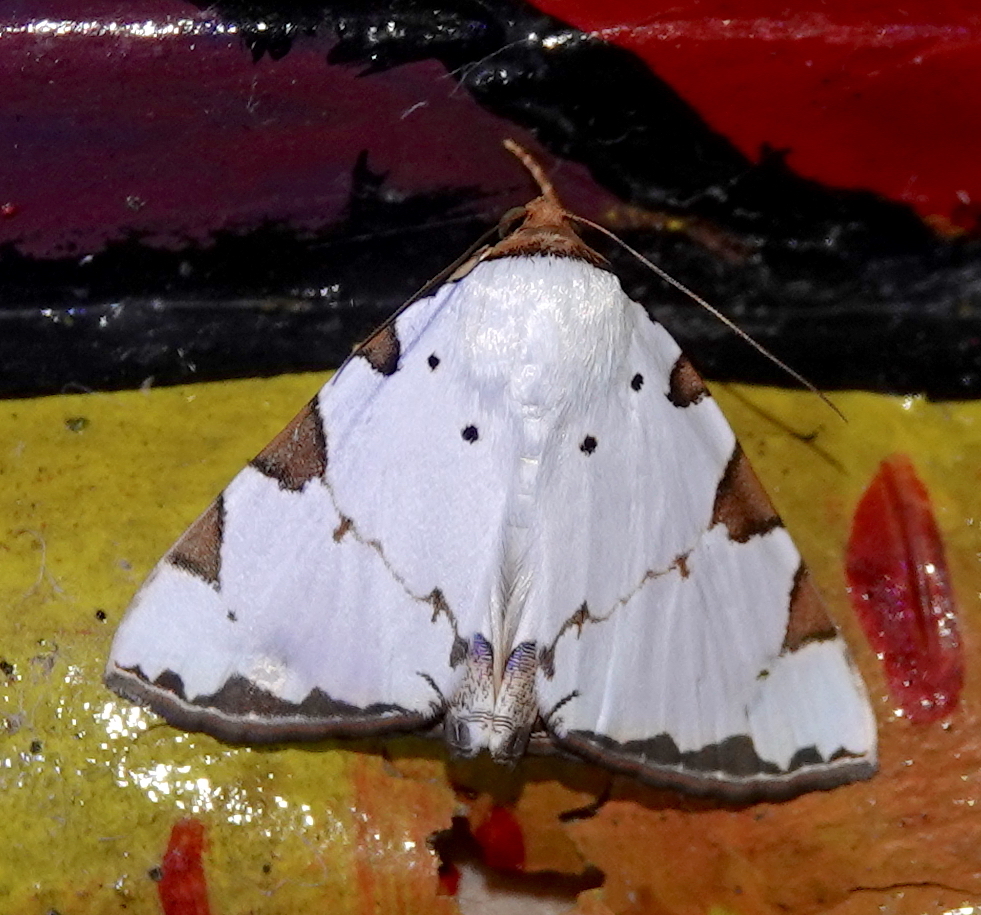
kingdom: Animalia
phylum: Arthropoda
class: Insecta
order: Lepidoptera
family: Erebidae
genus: Eulepidotis
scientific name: Eulepidotis testaceiceps
